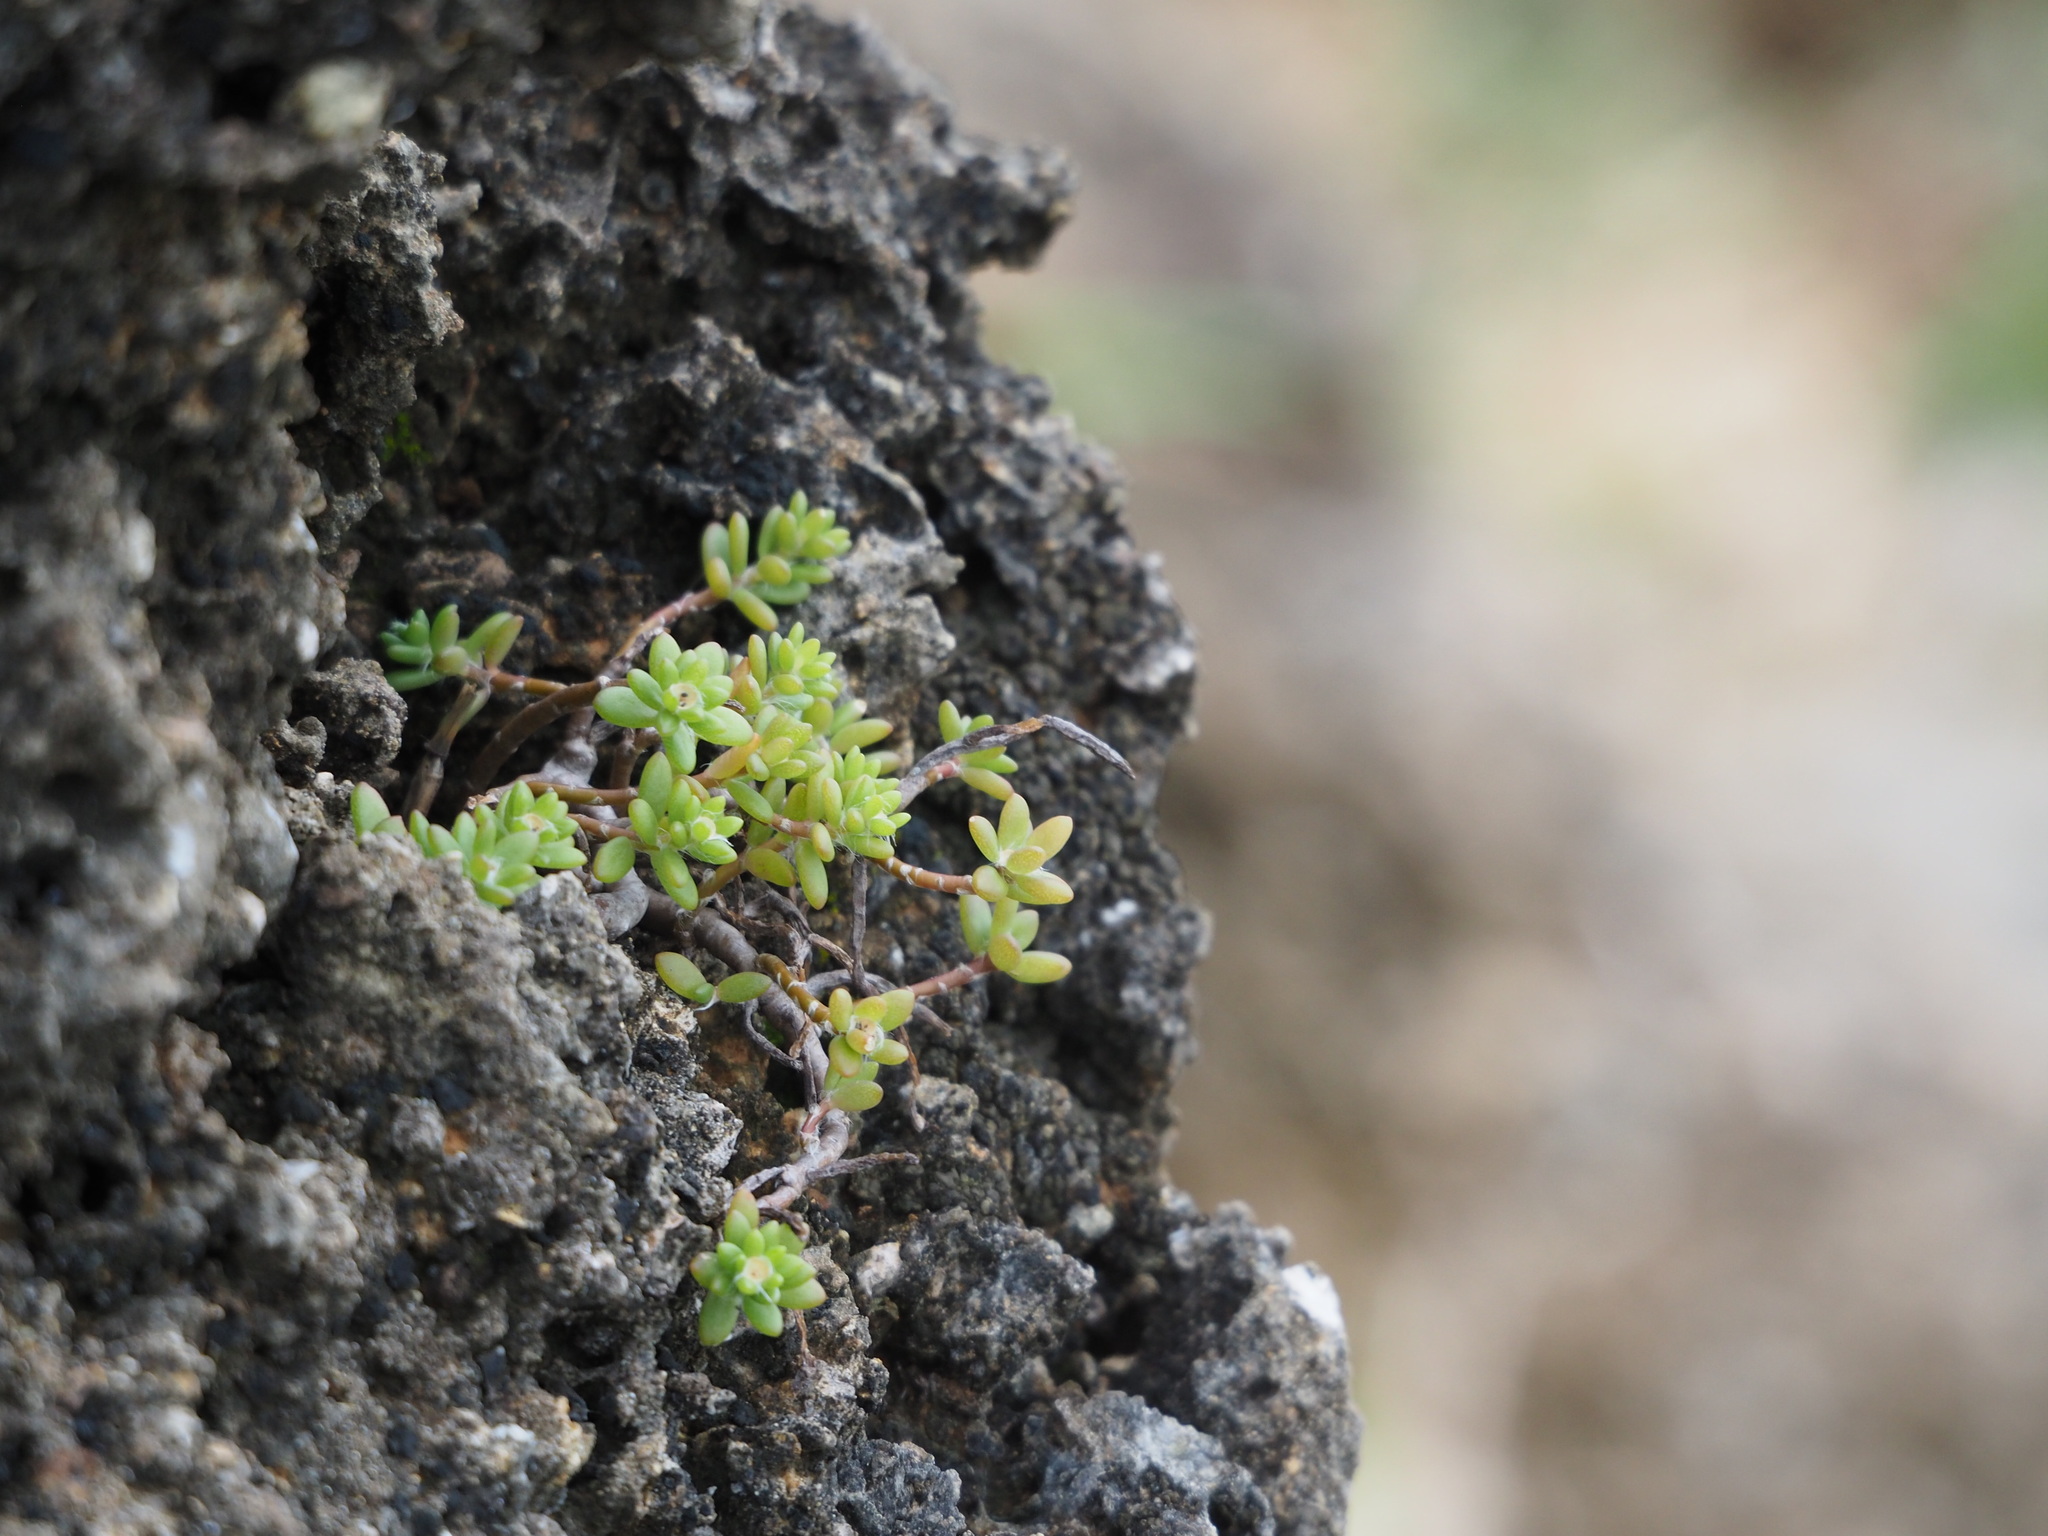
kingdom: Plantae
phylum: Tracheophyta
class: Magnoliopsida
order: Caryophyllales
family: Portulacaceae
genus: Portulaca
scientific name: Portulaca psammotropha
